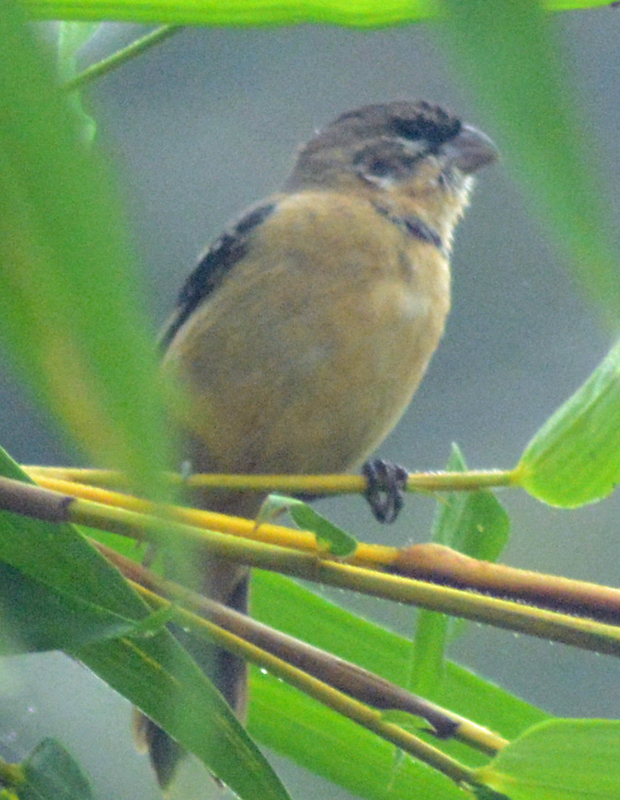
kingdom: Animalia
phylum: Chordata
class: Aves
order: Passeriformes
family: Thraupidae
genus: Sporophila
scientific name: Sporophila morelleti
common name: Morelet's seedeater
